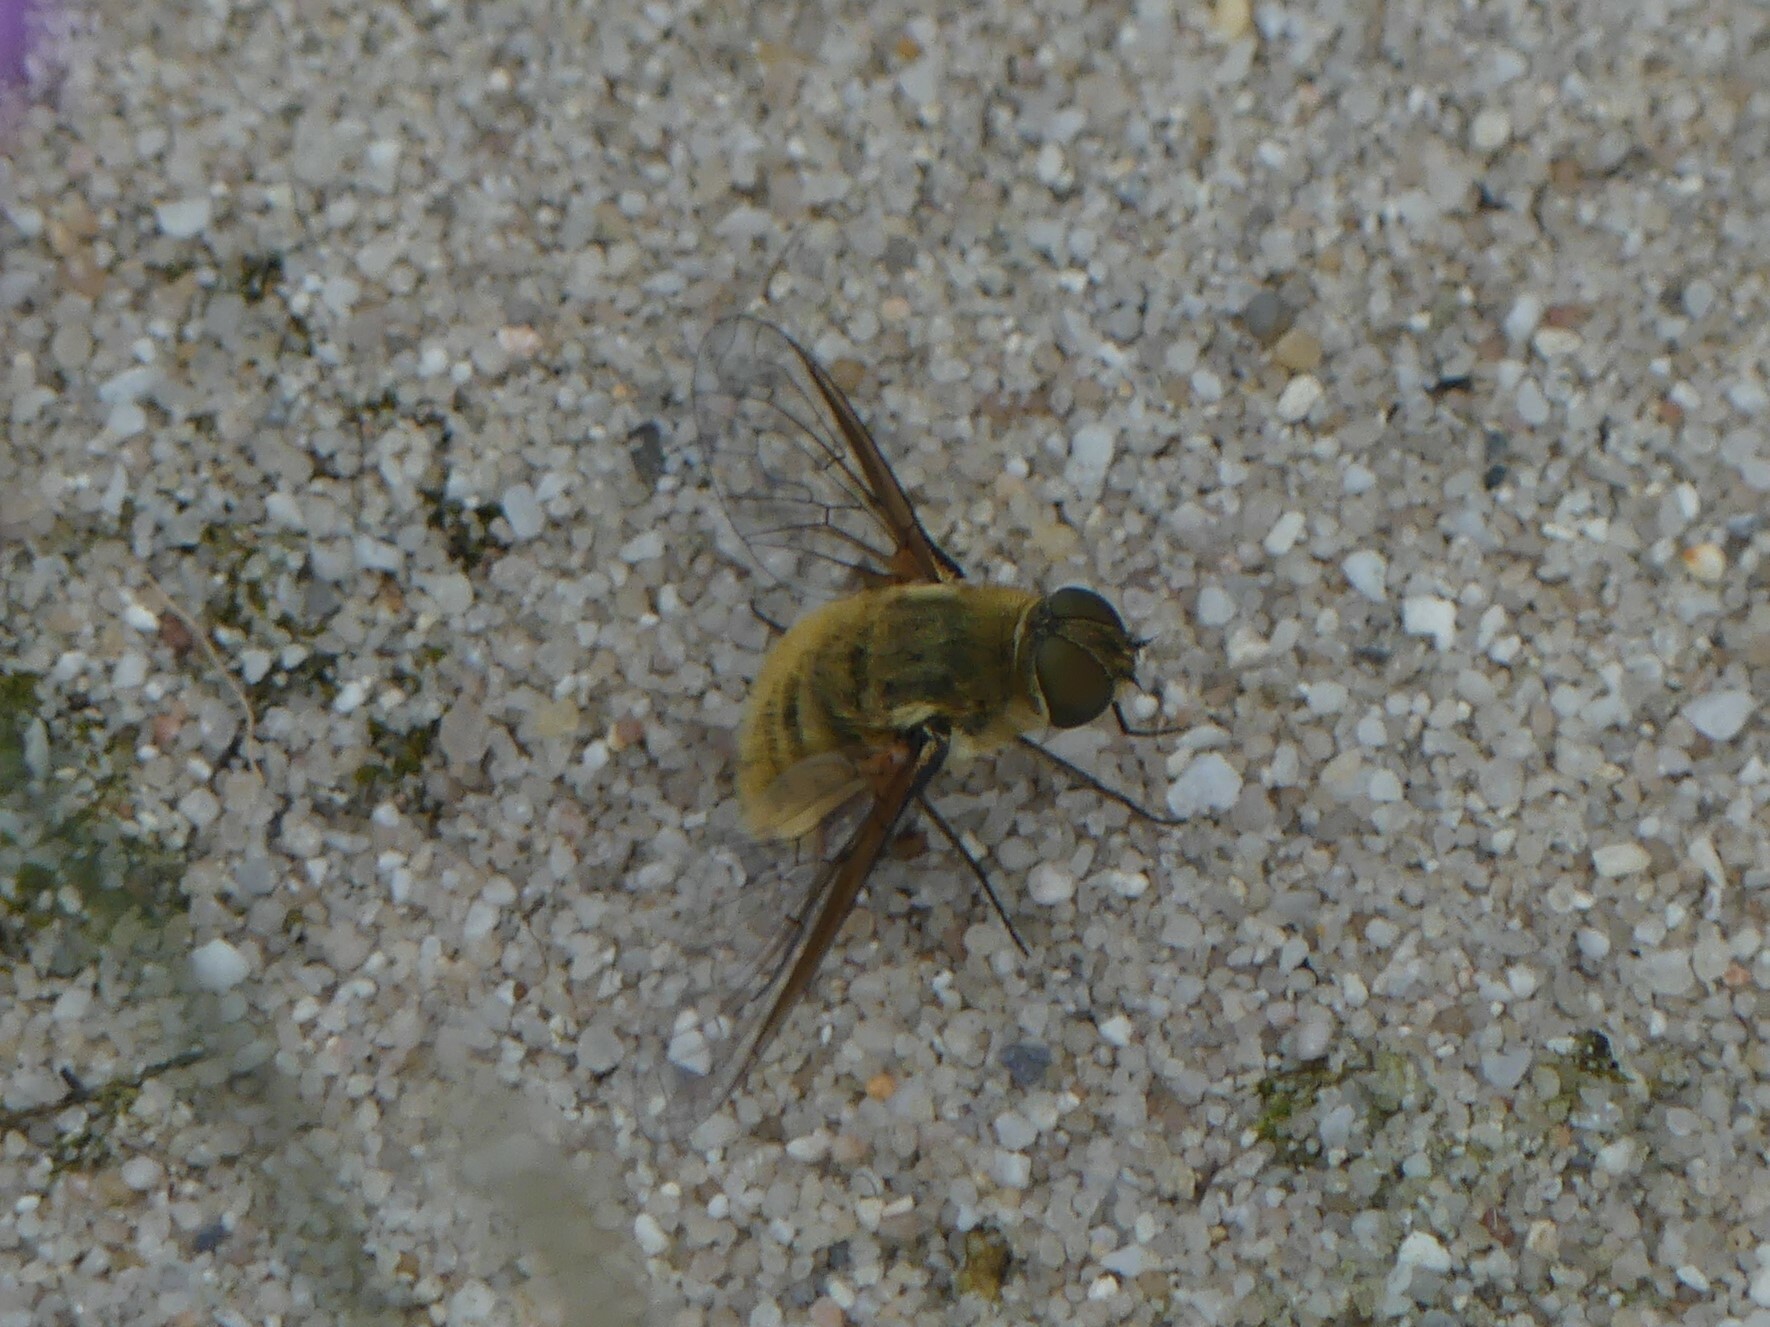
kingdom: Animalia
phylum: Arthropoda
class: Insecta
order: Diptera
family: Bombyliidae
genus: Villa
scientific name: Villa hottentotta
